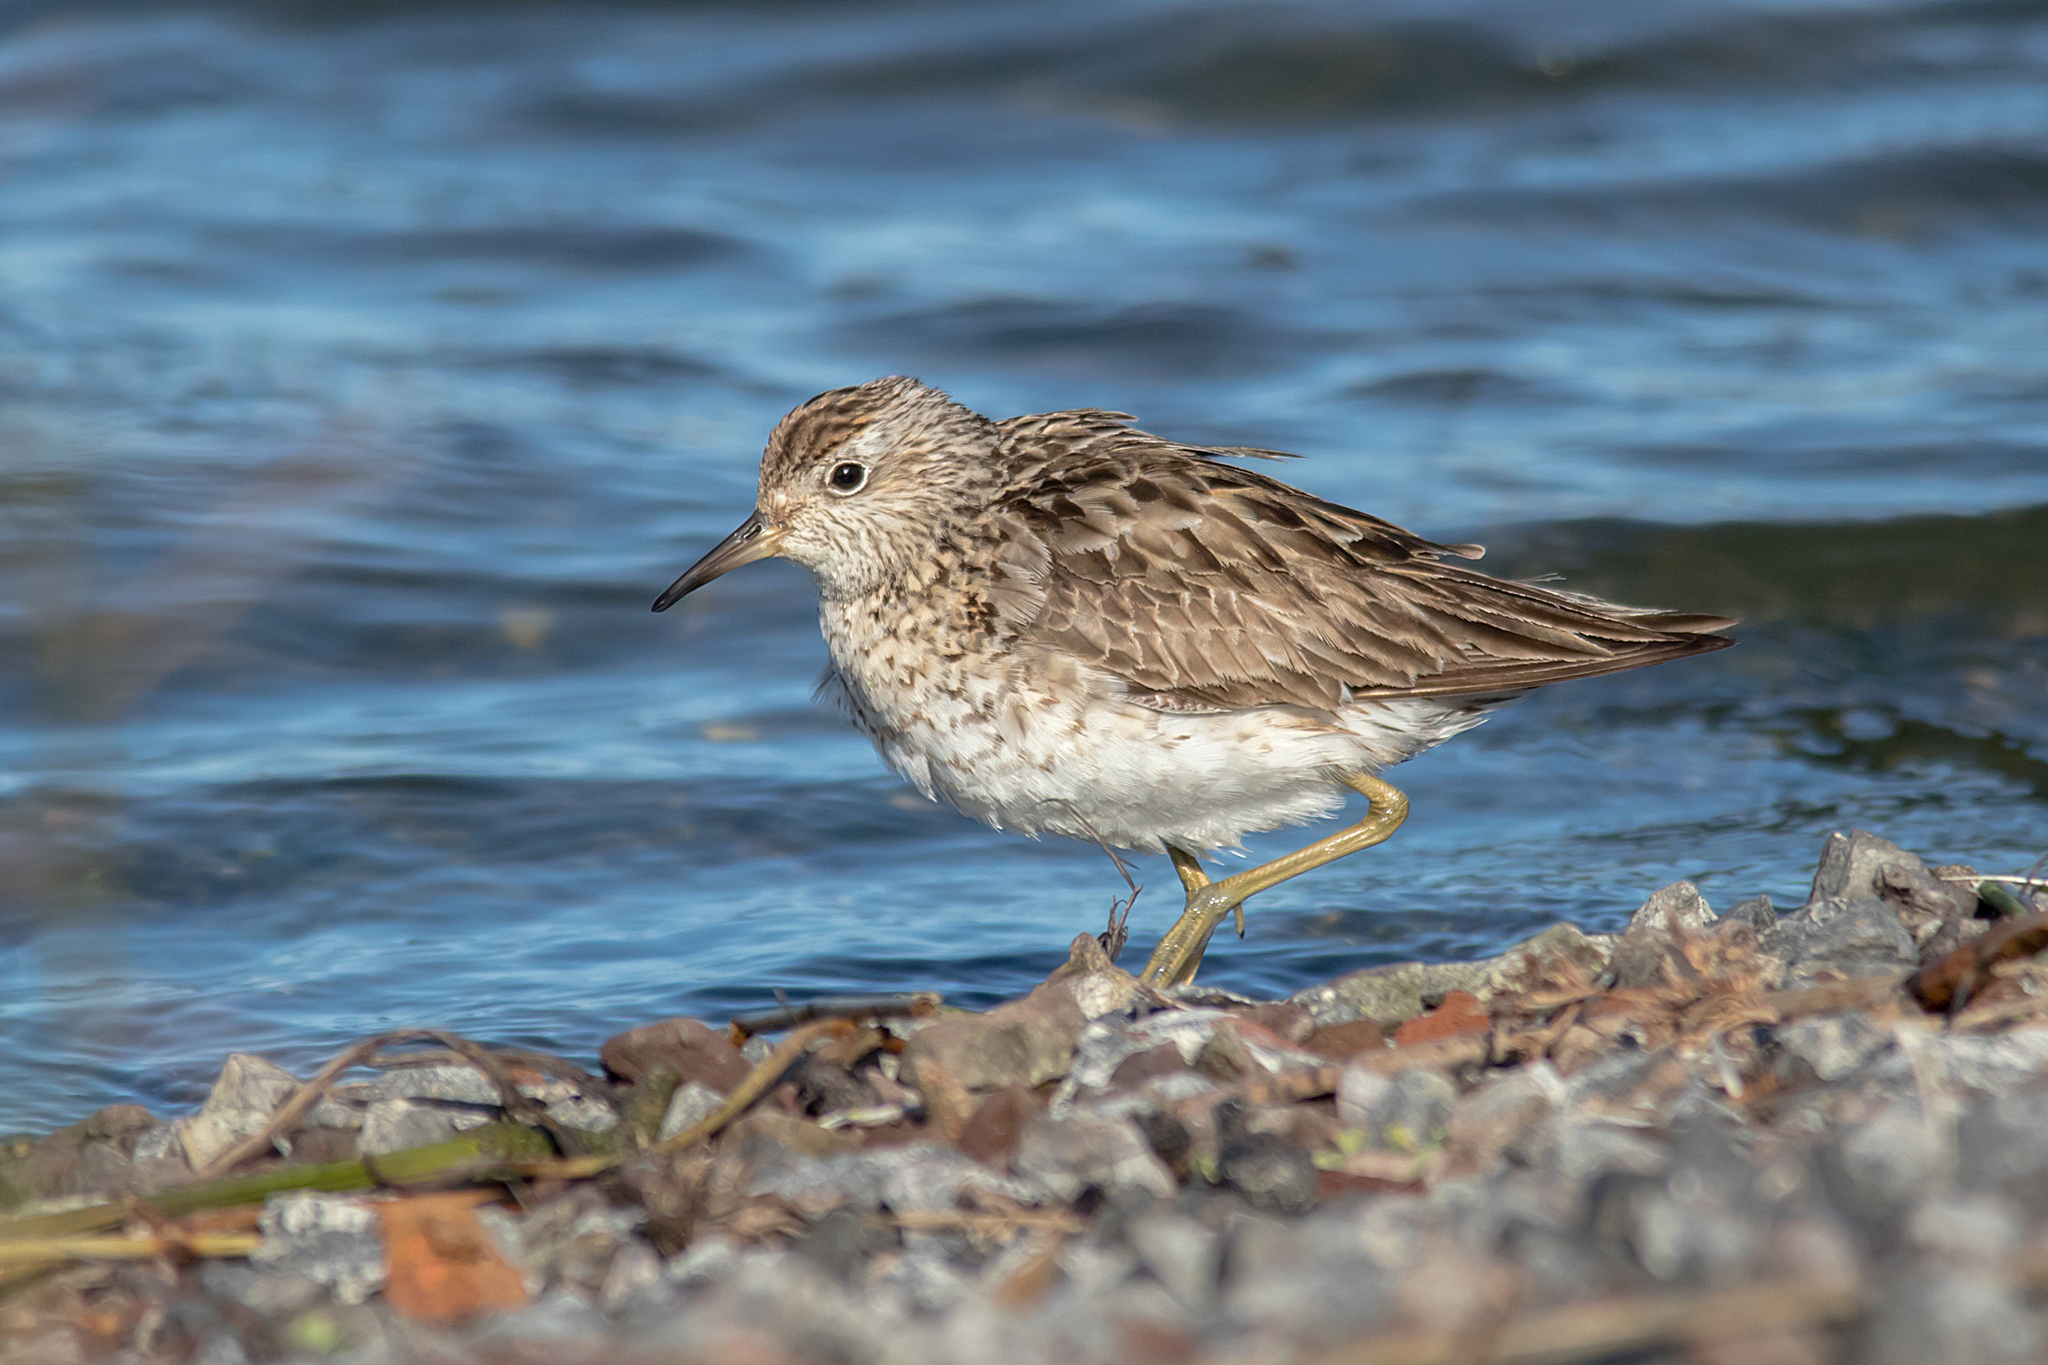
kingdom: Animalia
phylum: Chordata
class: Aves
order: Charadriiformes
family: Scolopacidae
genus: Calidris
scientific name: Calidris acuminata
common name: Sharp-tailed sandpiper
